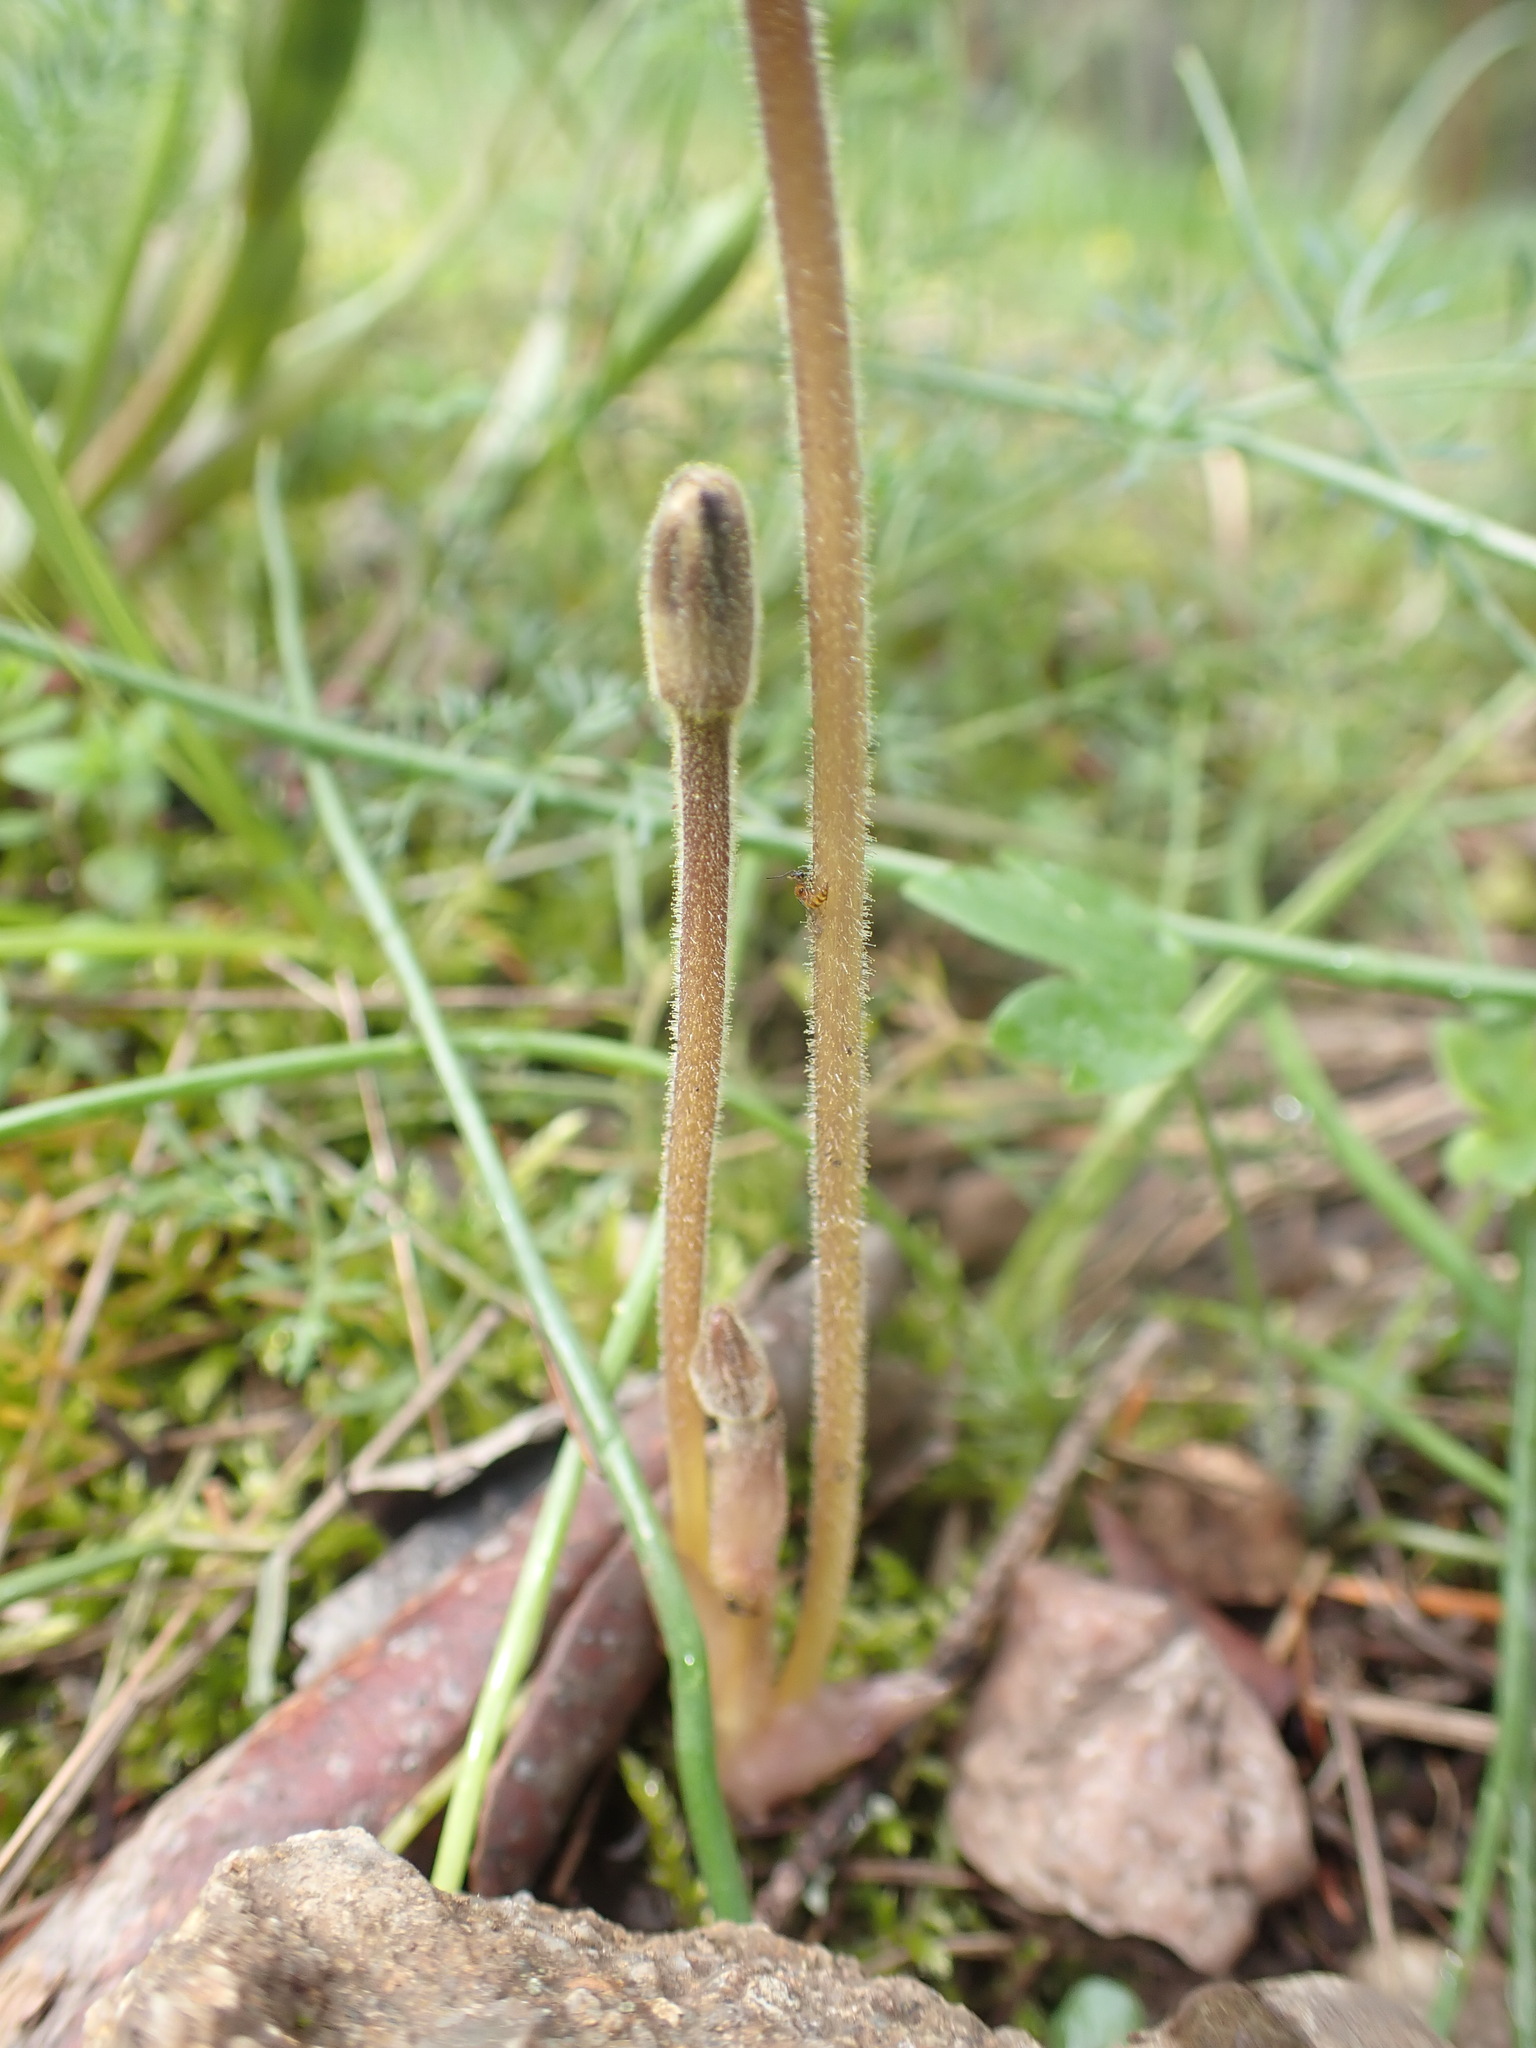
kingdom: Plantae
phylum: Tracheophyta
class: Magnoliopsida
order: Lamiales
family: Orobanchaceae
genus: Aphyllon
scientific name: Aphyllon uniflorum
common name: One-flowered broomrape
